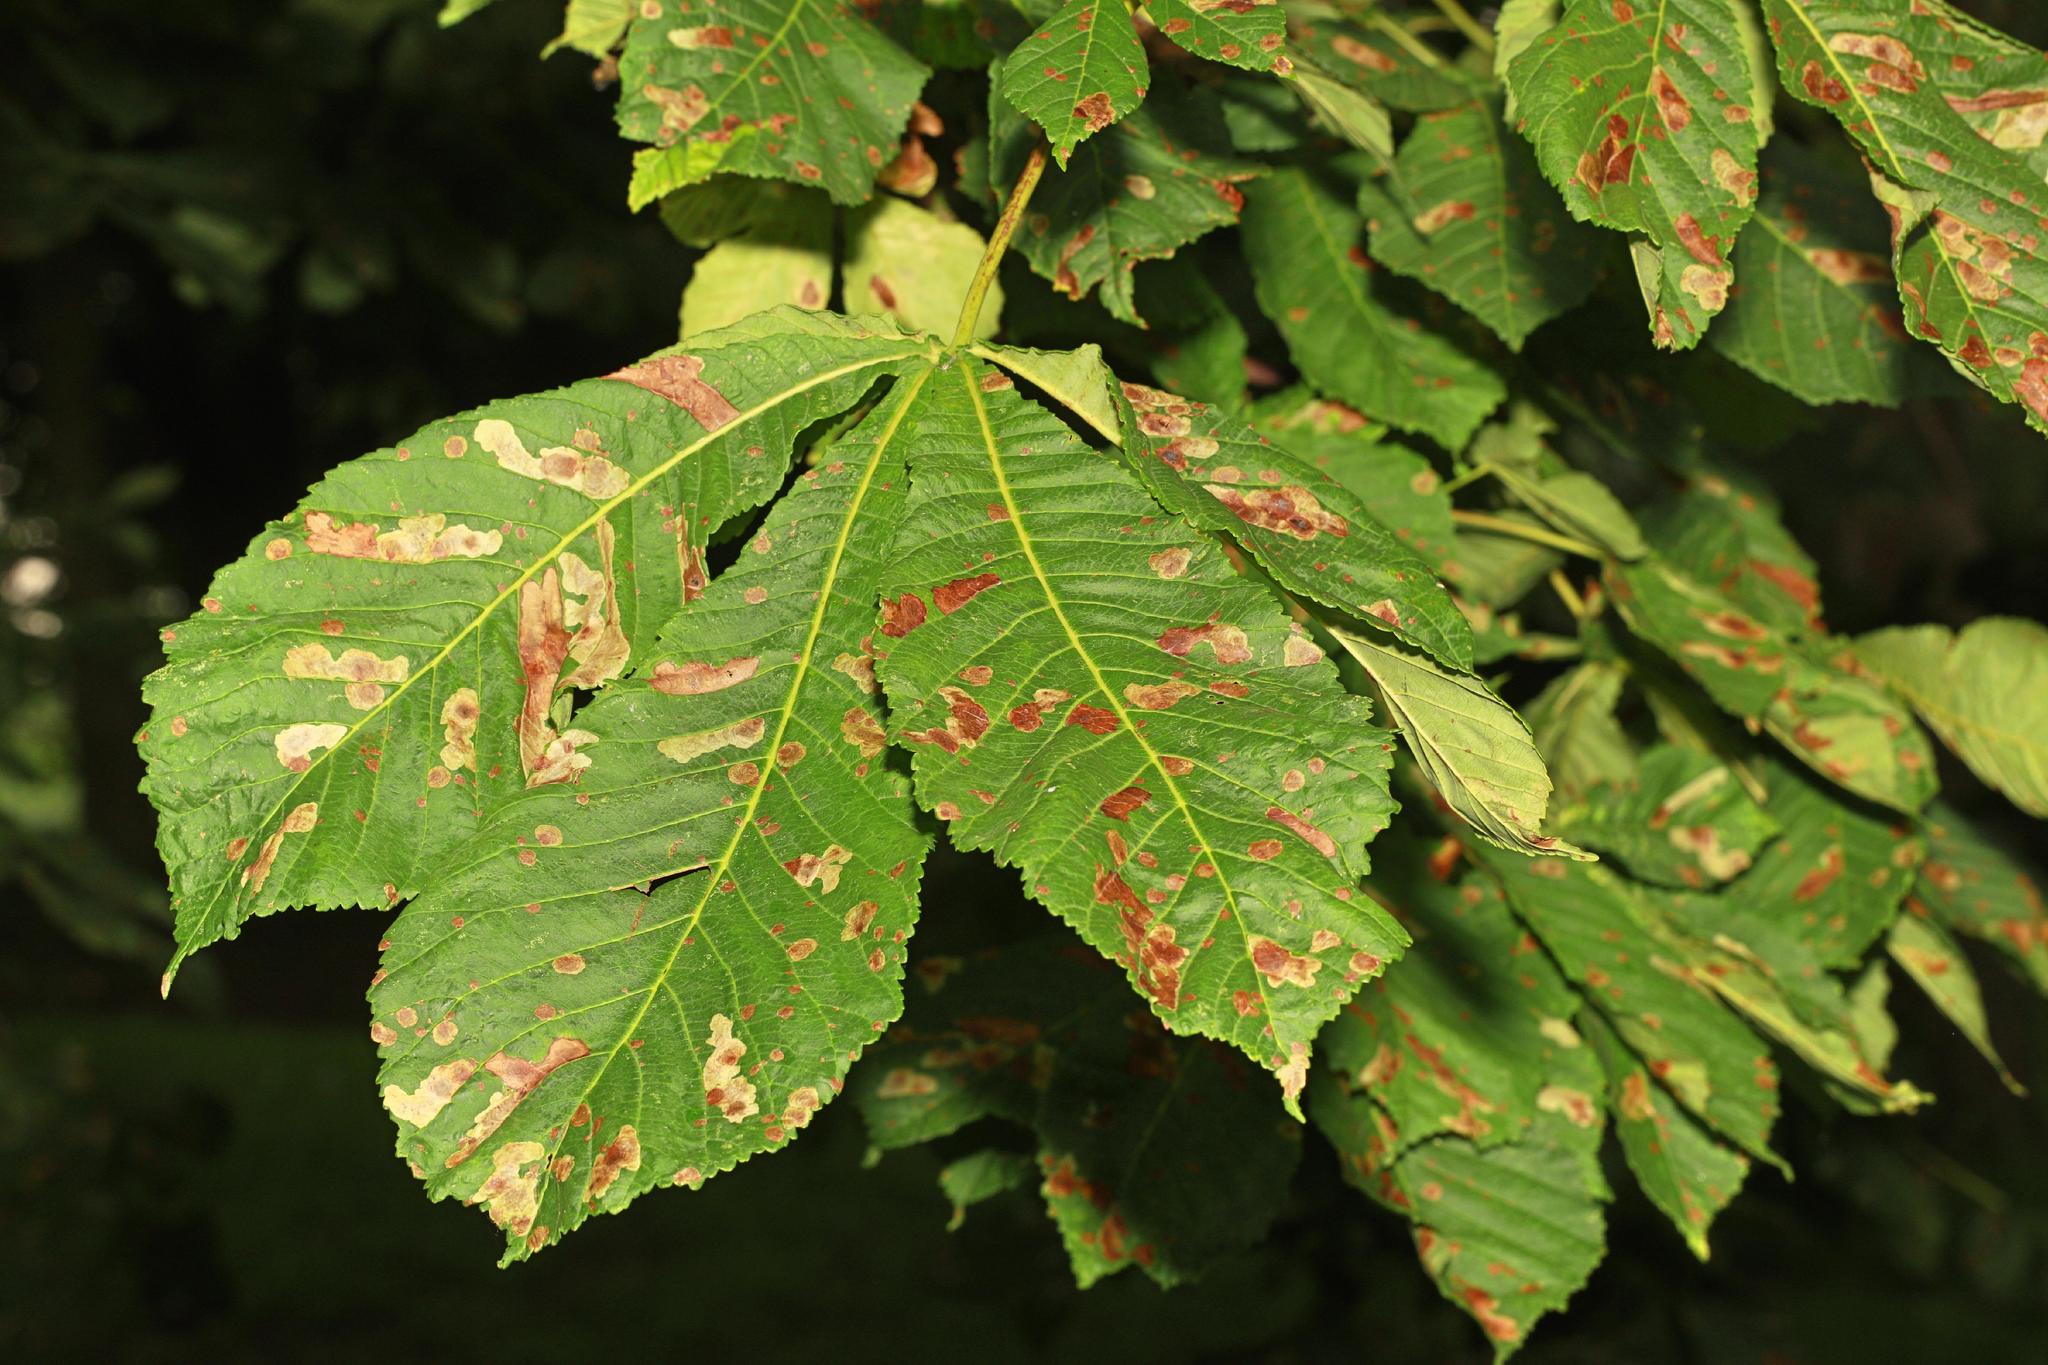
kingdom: Plantae
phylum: Tracheophyta
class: Magnoliopsida
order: Sapindales
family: Sapindaceae
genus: Aesculus
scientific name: Aesculus hippocastanum
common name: Horse-chestnut
